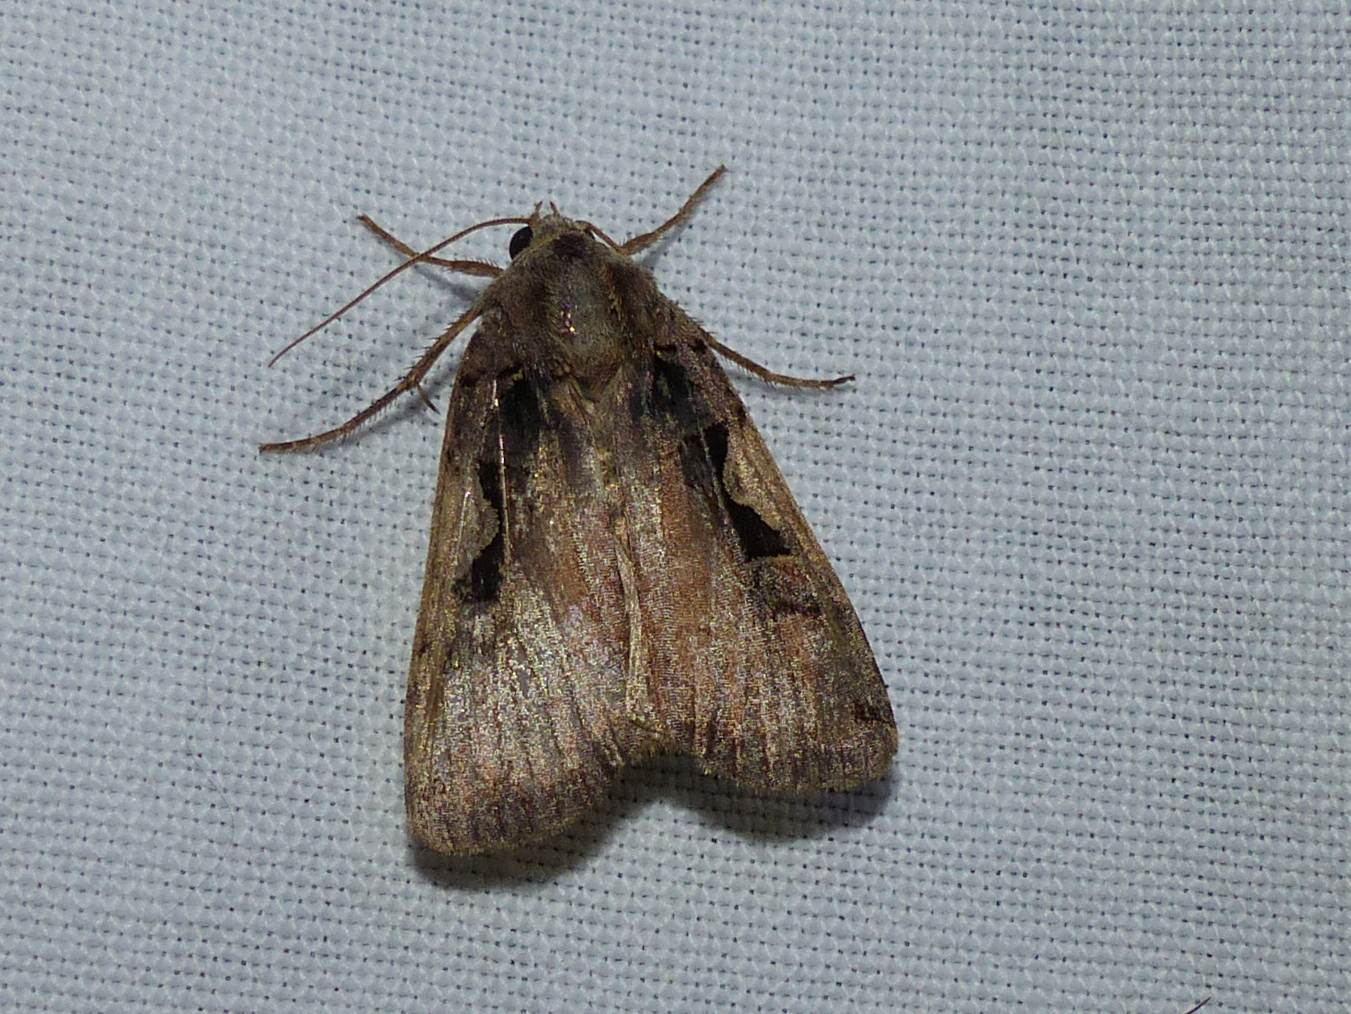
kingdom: Animalia
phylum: Arthropoda
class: Insecta
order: Lepidoptera
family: Noctuidae
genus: Xestia
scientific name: Xestia
